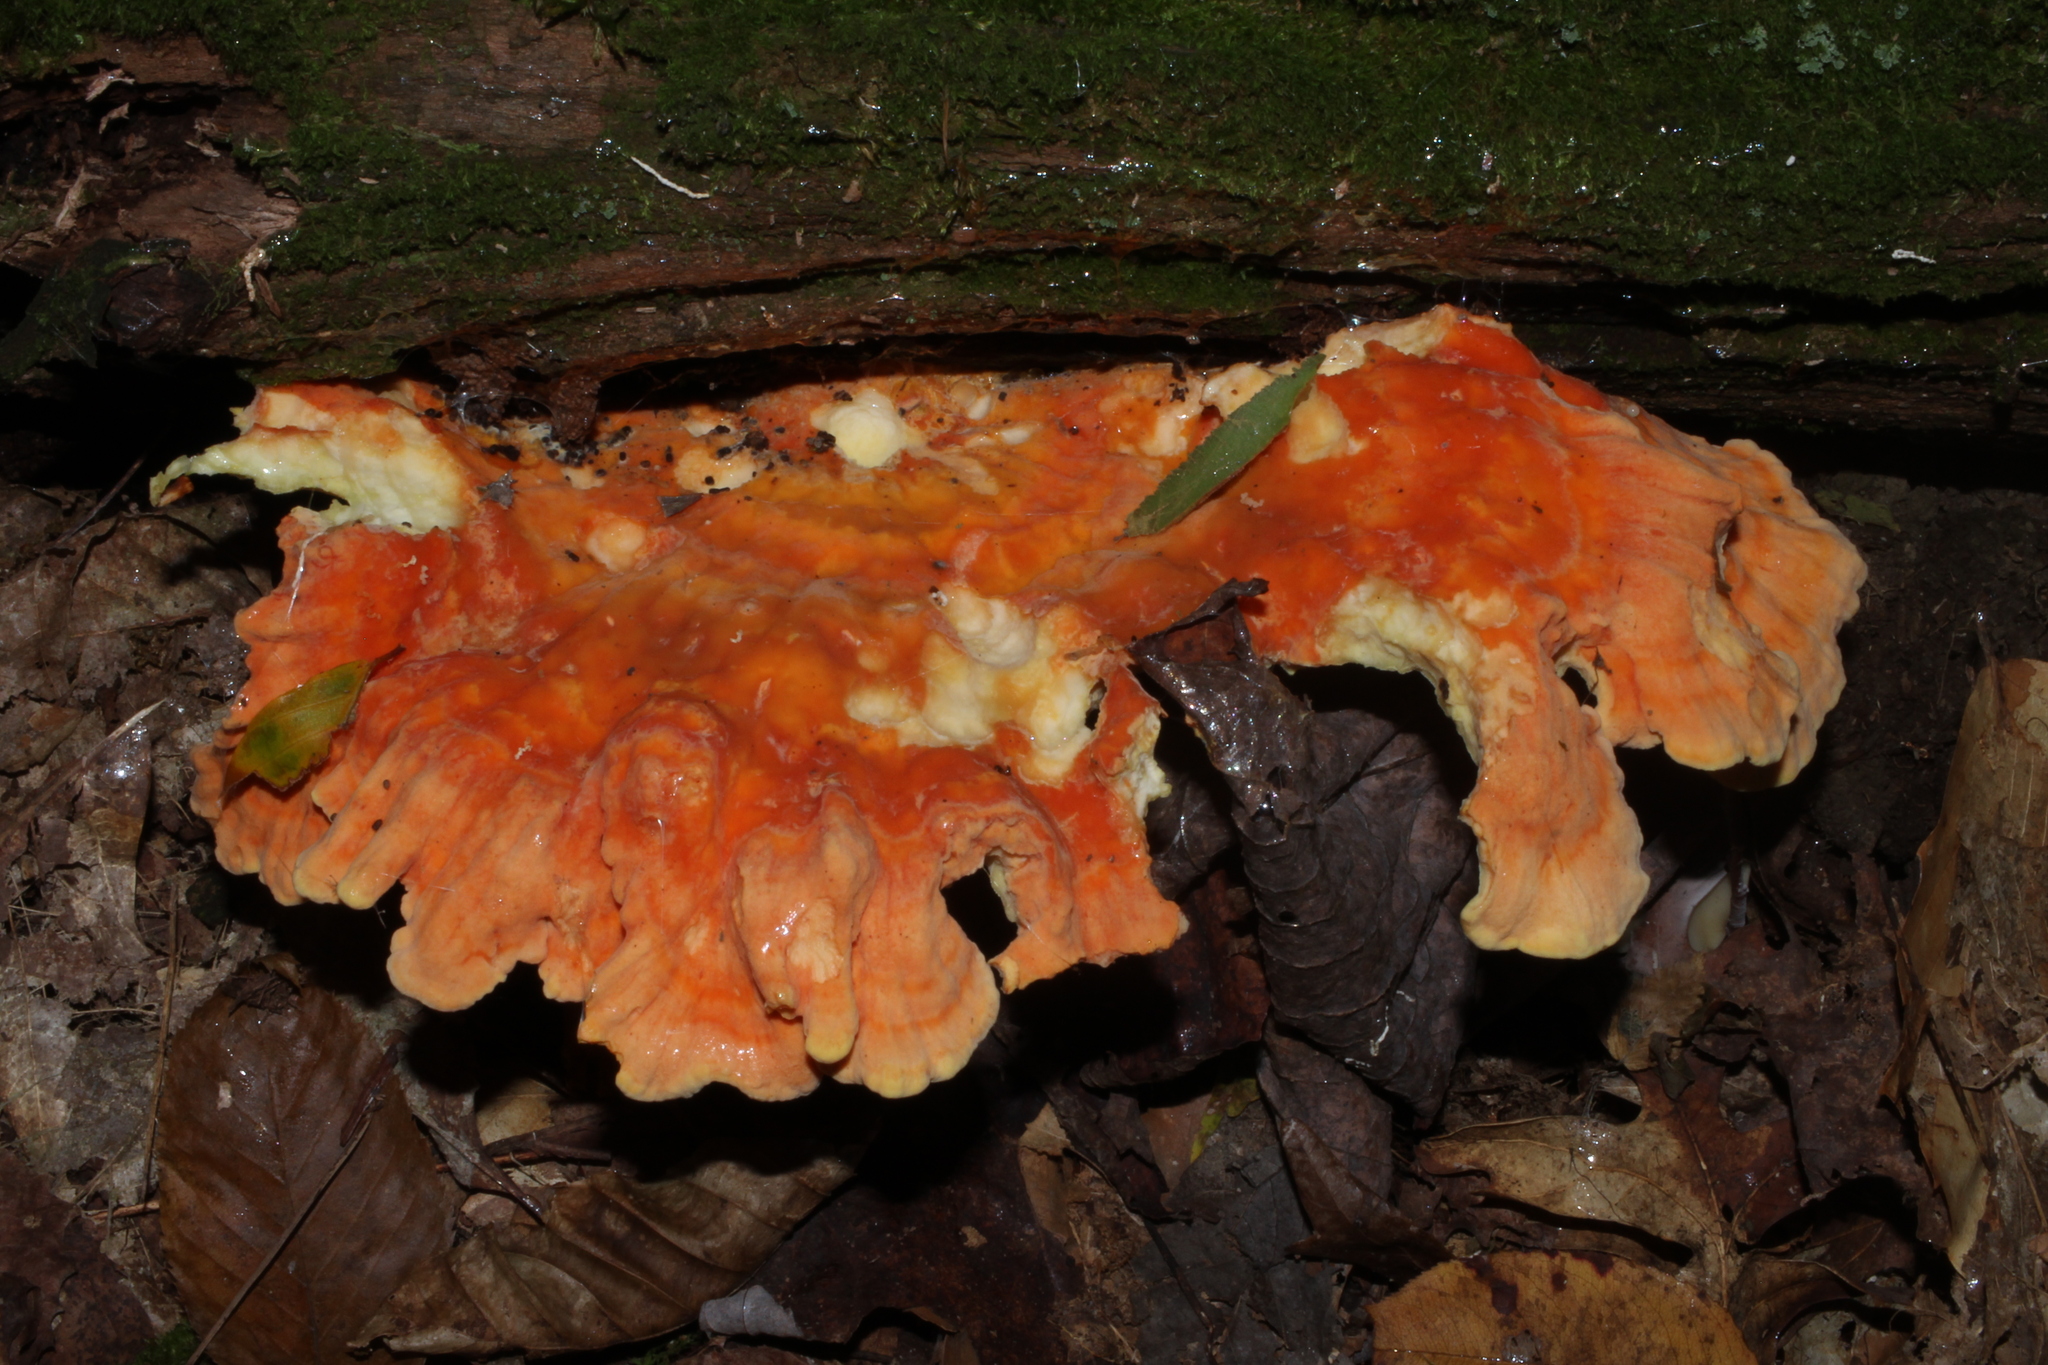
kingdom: Fungi
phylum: Basidiomycota
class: Agaricomycetes
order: Polyporales
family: Laetiporaceae
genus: Laetiporus
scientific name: Laetiporus sulphureus
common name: Chicken of the woods
